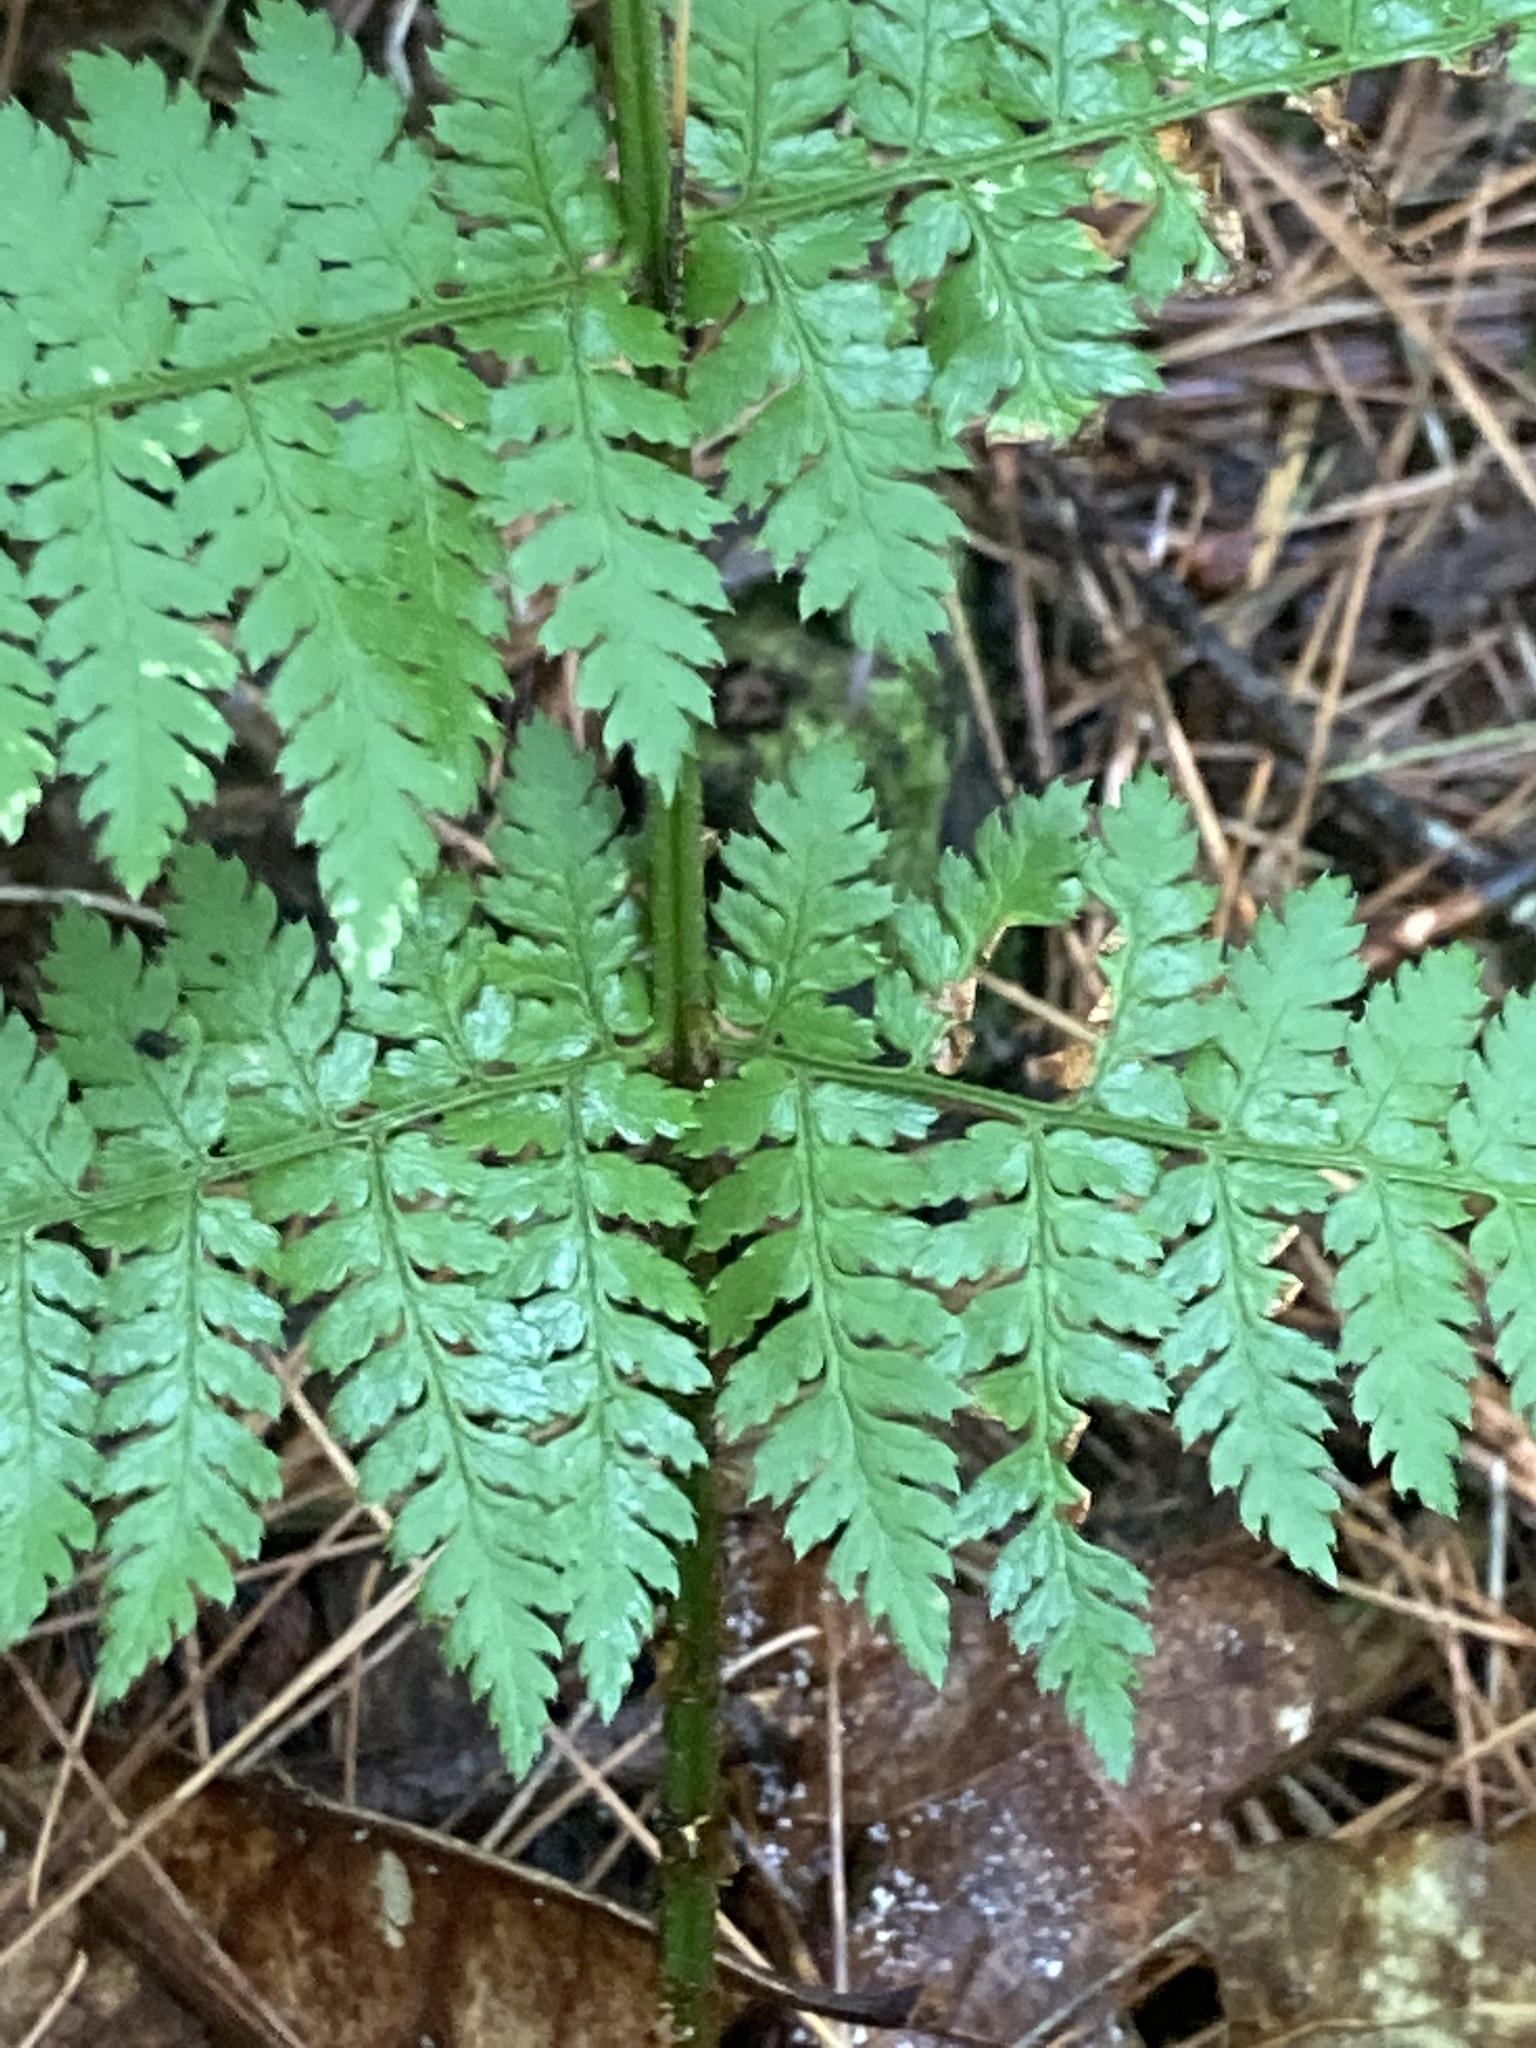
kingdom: Plantae
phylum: Tracheophyta
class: Polypodiopsida
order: Polypodiales
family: Dryopteridaceae
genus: Dryopteris
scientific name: Dryopteris intermedia
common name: Evergreen wood fern
